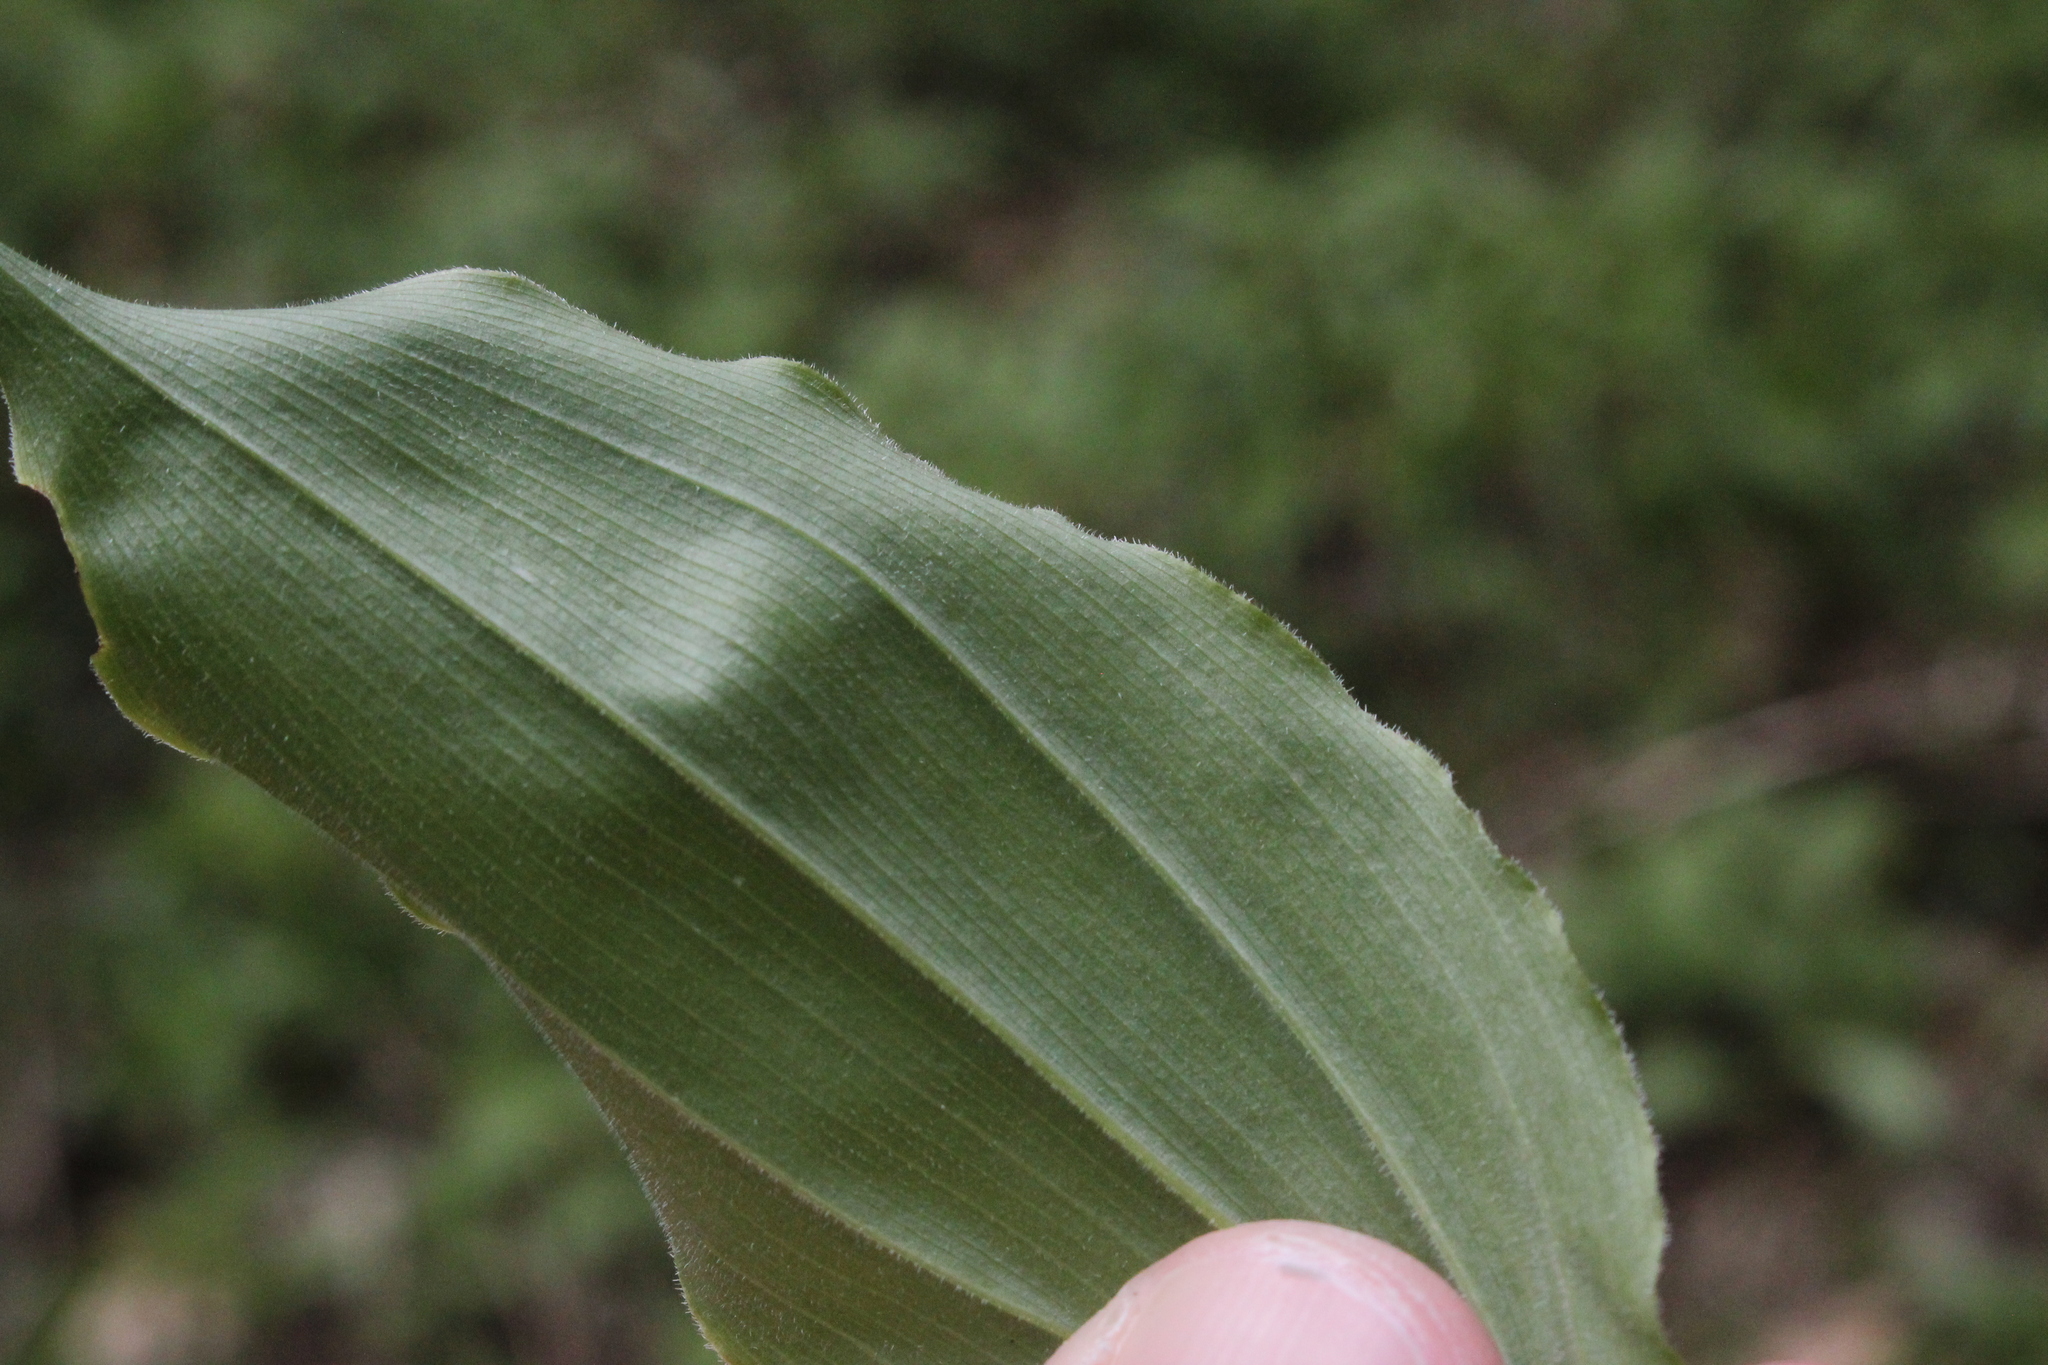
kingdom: Plantae
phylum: Tracheophyta
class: Liliopsida
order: Asparagales
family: Asparagaceae
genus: Maianthemum
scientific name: Maianthemum racemosum
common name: False spikenard
